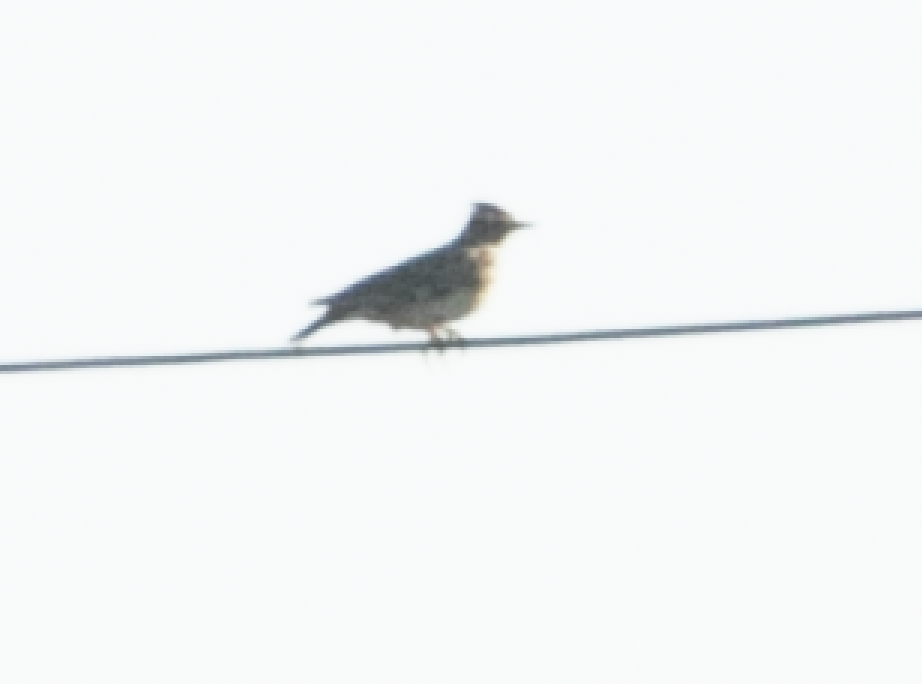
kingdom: Animalia
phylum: Chordata
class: Aves
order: Passeriformes
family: Alaudidae
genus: Lullula
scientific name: Lullula arborea
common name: Woodlark
